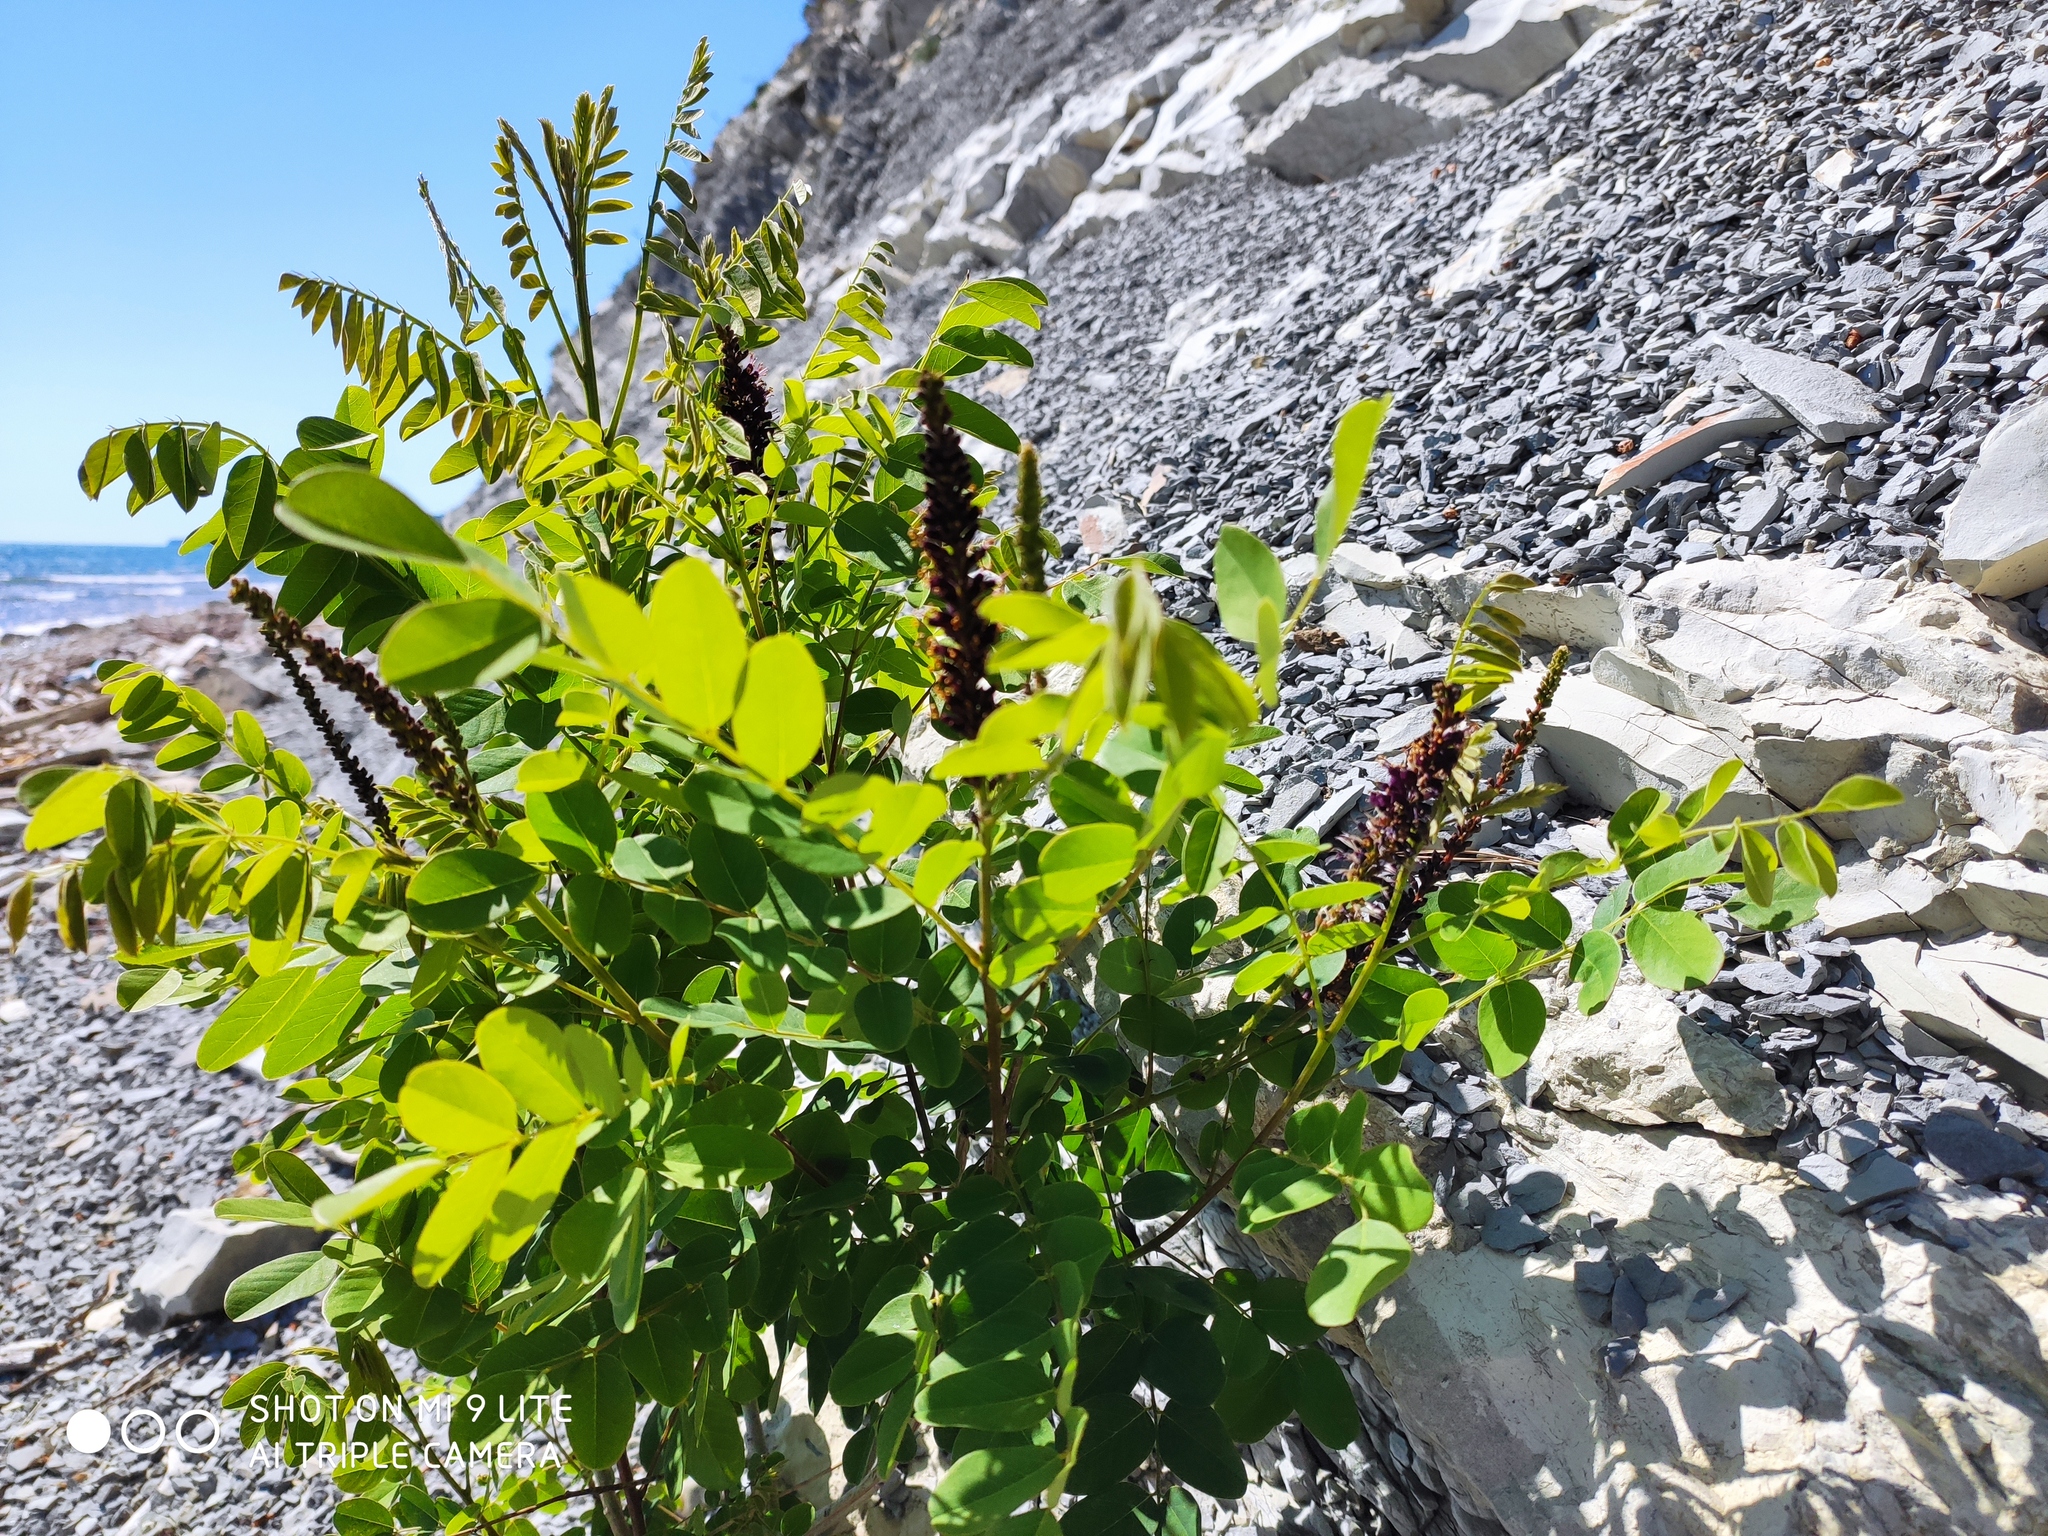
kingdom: Plantae
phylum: Tracheophyta
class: Magnoliopsida
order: Fabales
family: Fabaceae
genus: Amorpha
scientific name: Amorpha fruticosa
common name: False indigo
